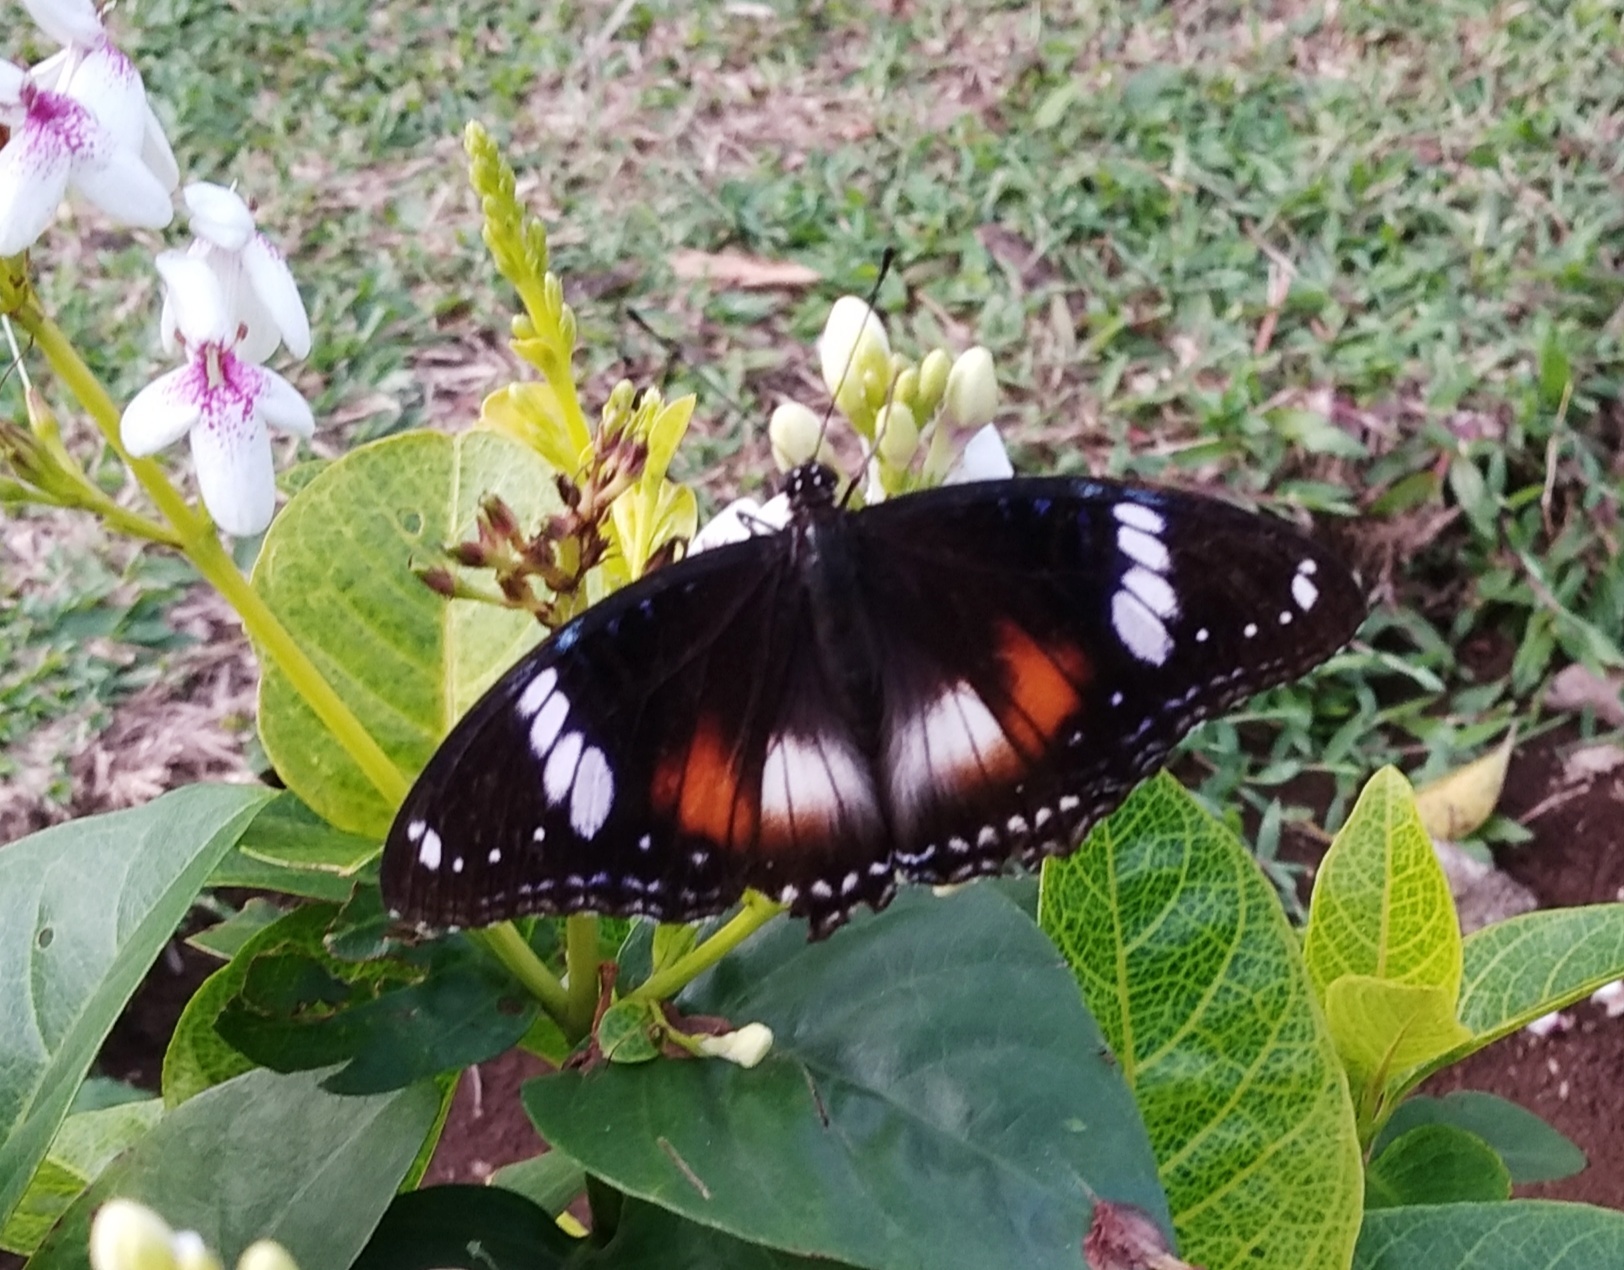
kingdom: Animalia
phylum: Arthropoda
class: Insecta
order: Lepidoptera
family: Nymphalidae
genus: Hypolimnas
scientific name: Hypolimnas bolina
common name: Great eggfly
